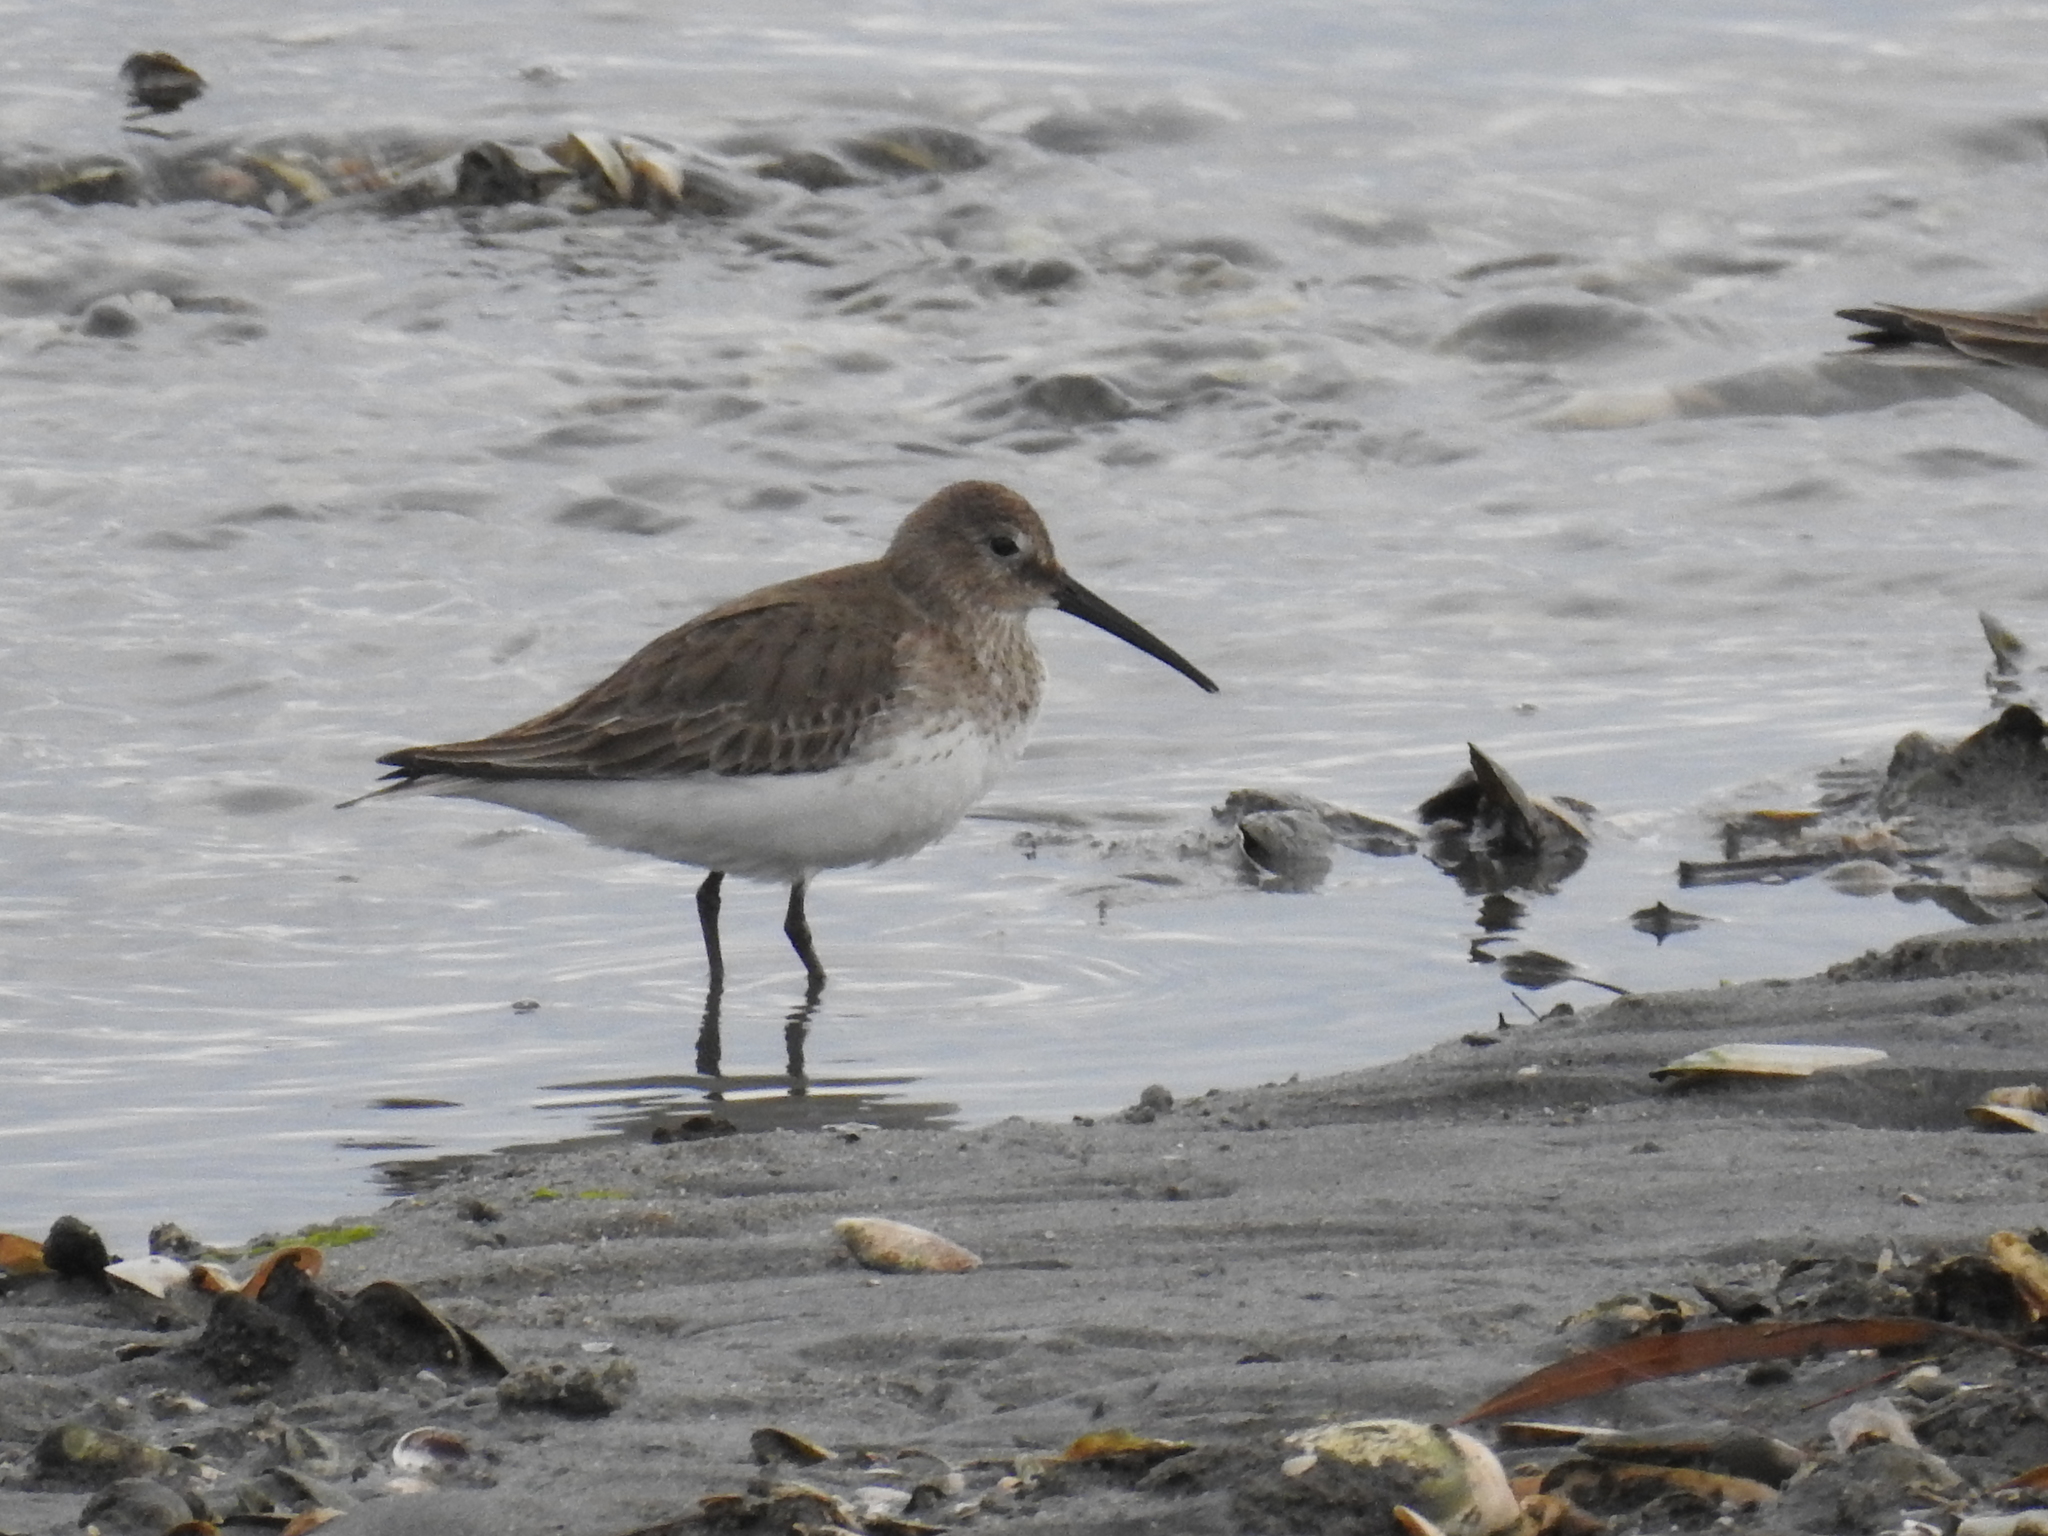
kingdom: Animalia
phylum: Chordata
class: Aves
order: Charadriiformes
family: Scolopacidae
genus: Calidris
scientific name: Calidris alpina
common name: Dunlin
